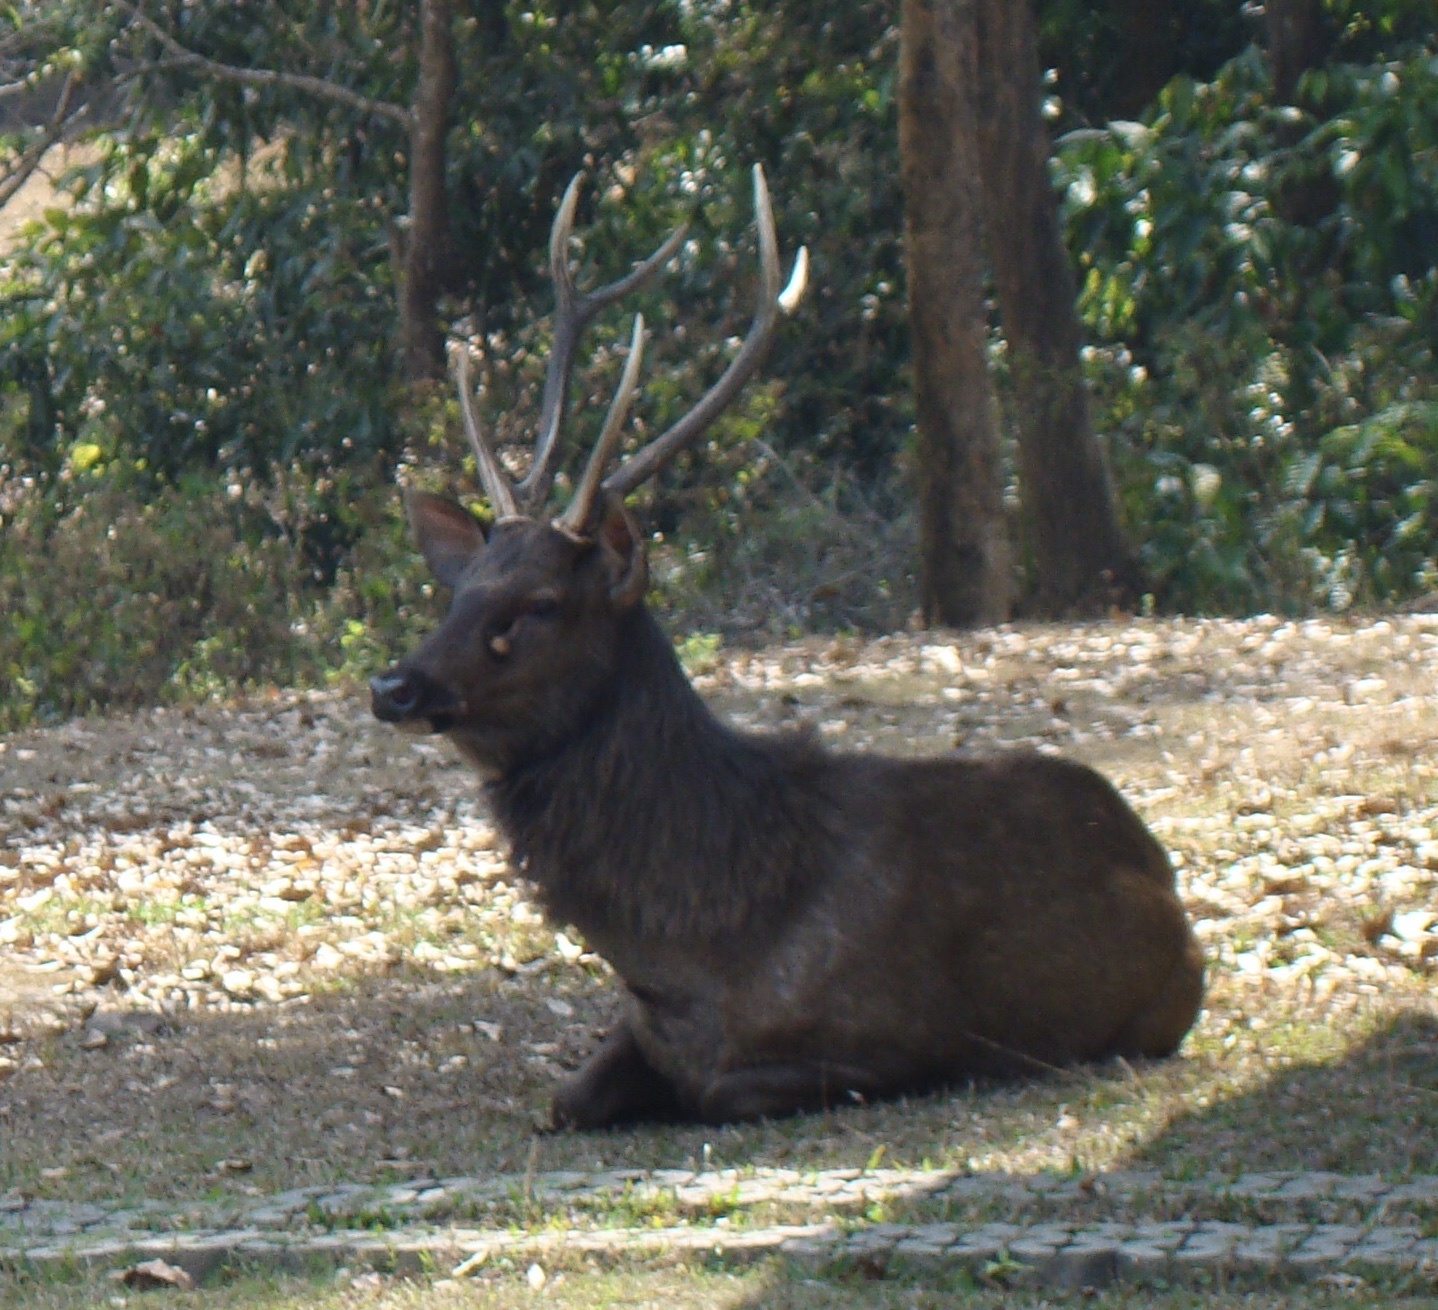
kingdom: Animalia
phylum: Chordata
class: Mammalia
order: Artiodactyla
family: Cervidae
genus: Rusa
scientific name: Rusa unicolor
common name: Sambar
